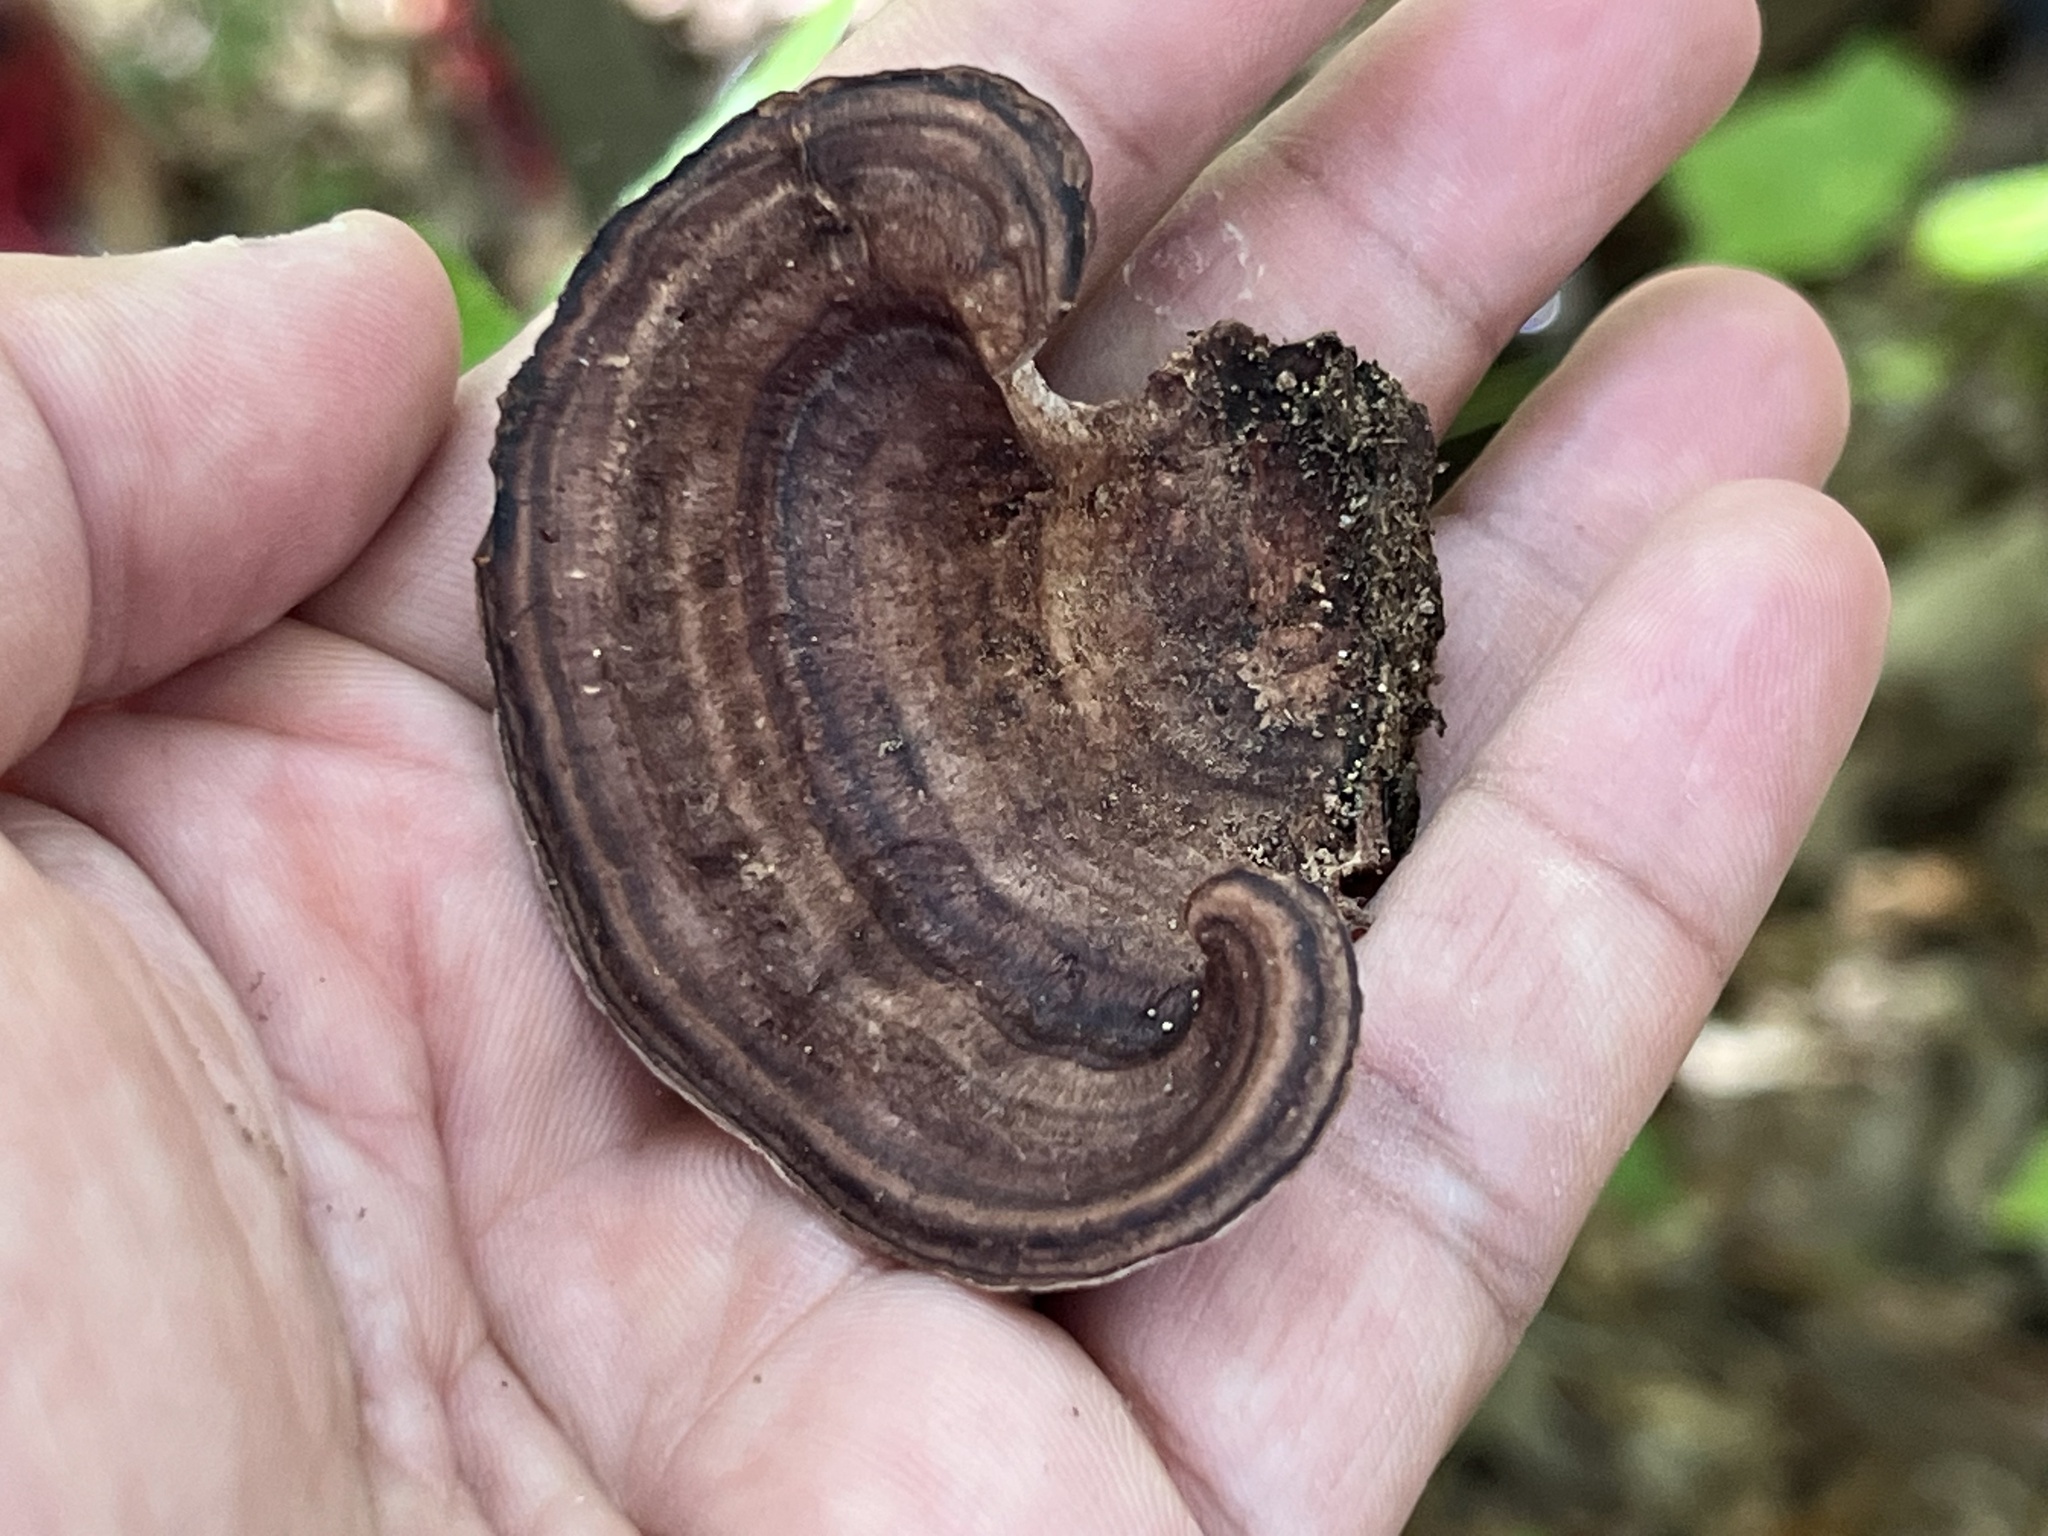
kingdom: Fungi
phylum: Basidiomycota
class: Agaricomycetes
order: Polyporales
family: Steccherinaceae
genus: Nigroporus
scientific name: Nigroporus vinosus
